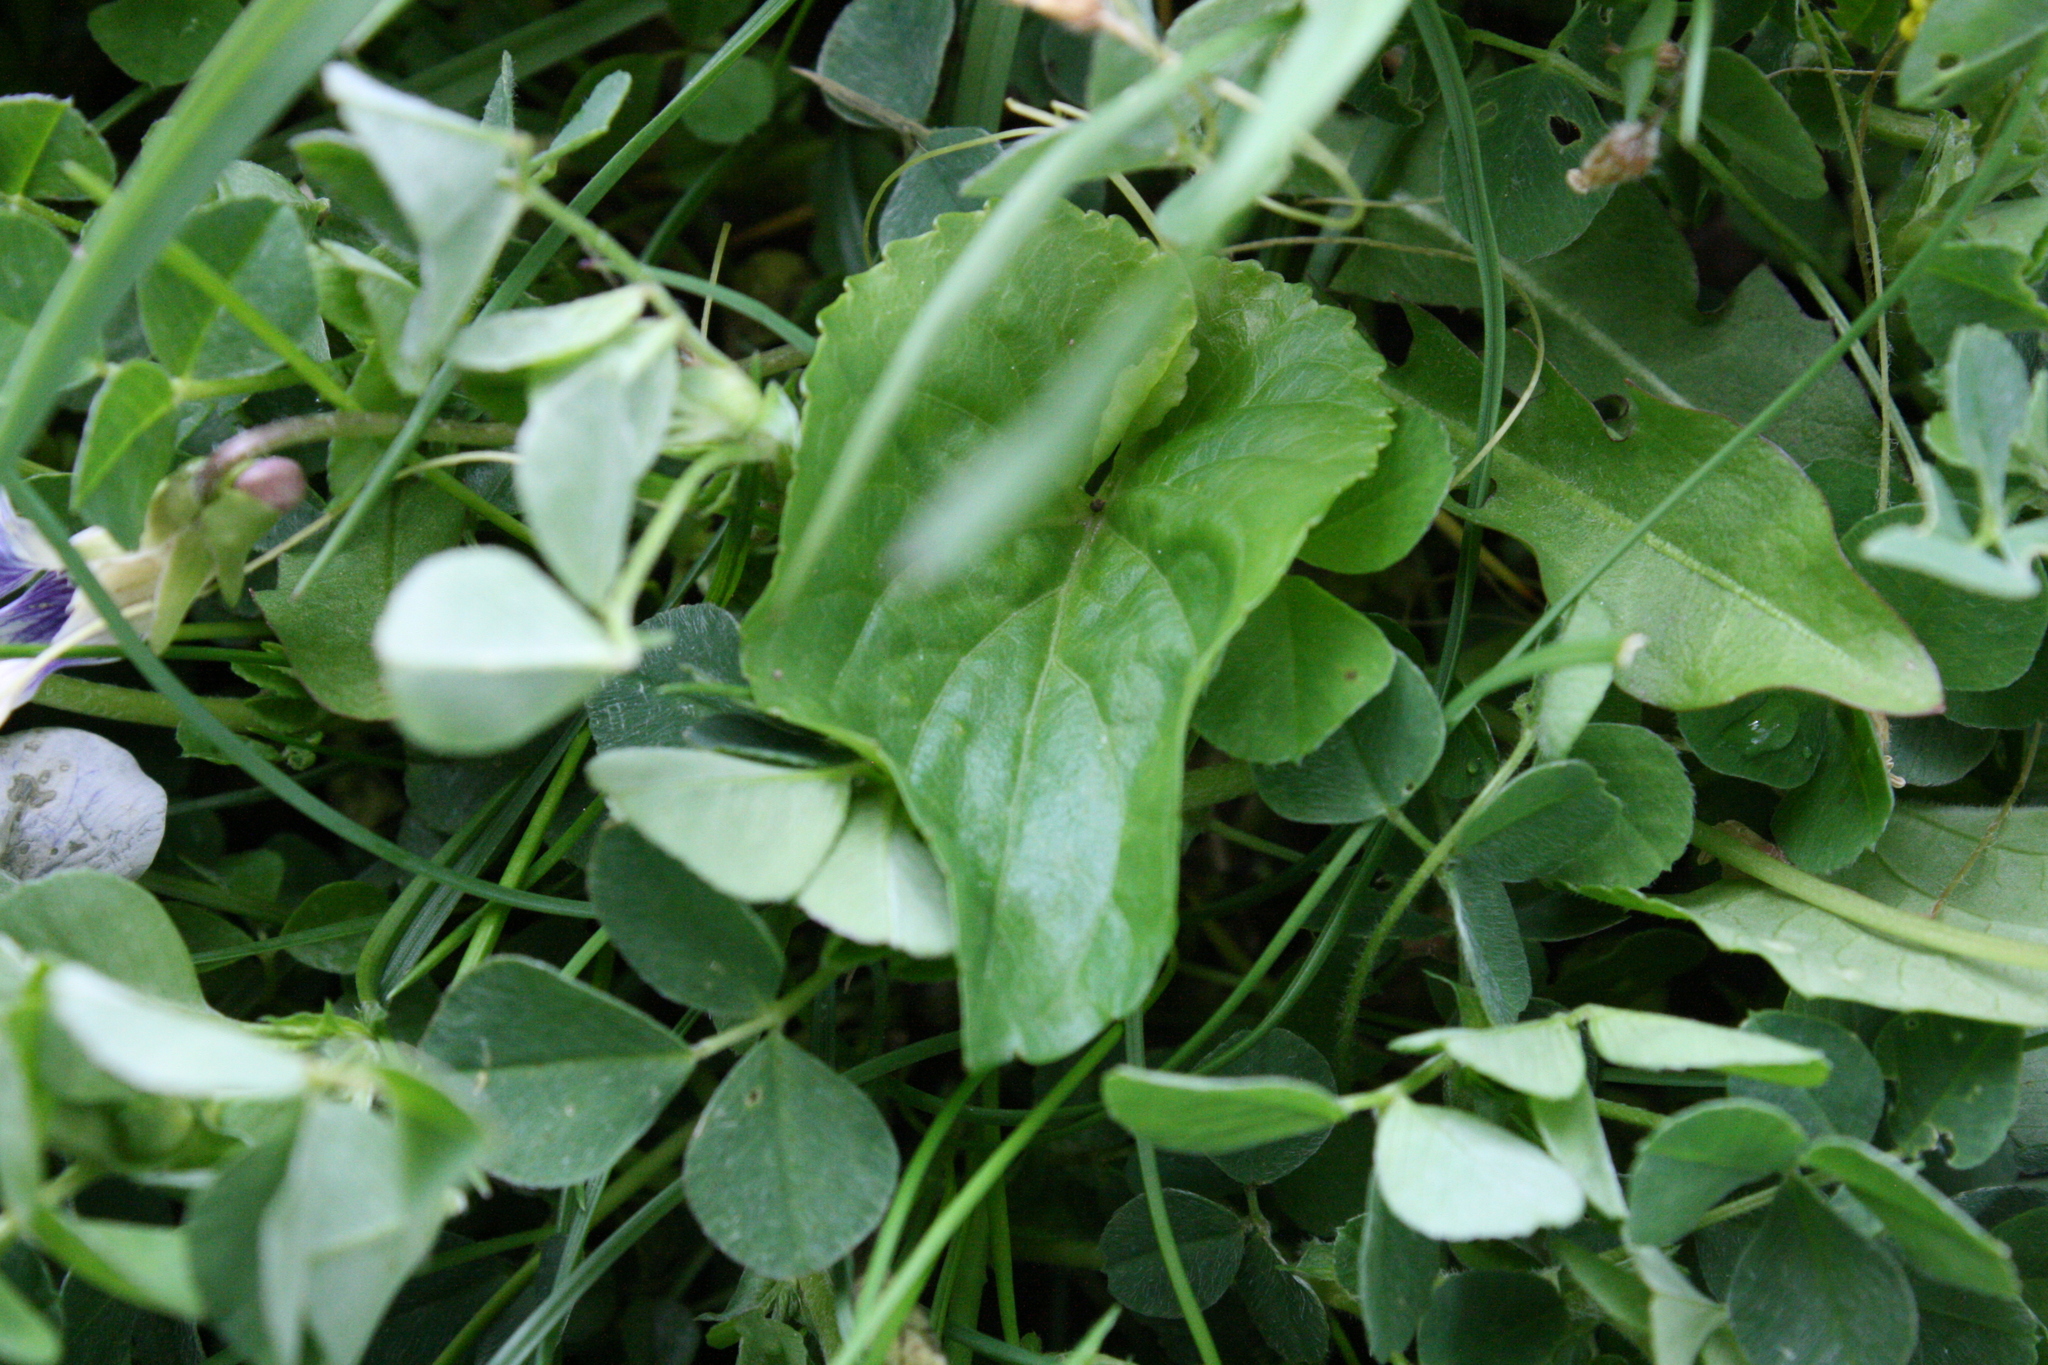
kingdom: Plantae
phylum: Tracheophyta
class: Magnoliopsida
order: Malpighiales
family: Violaceae
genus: Viola
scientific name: Viola sororia
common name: Dooryard violet
